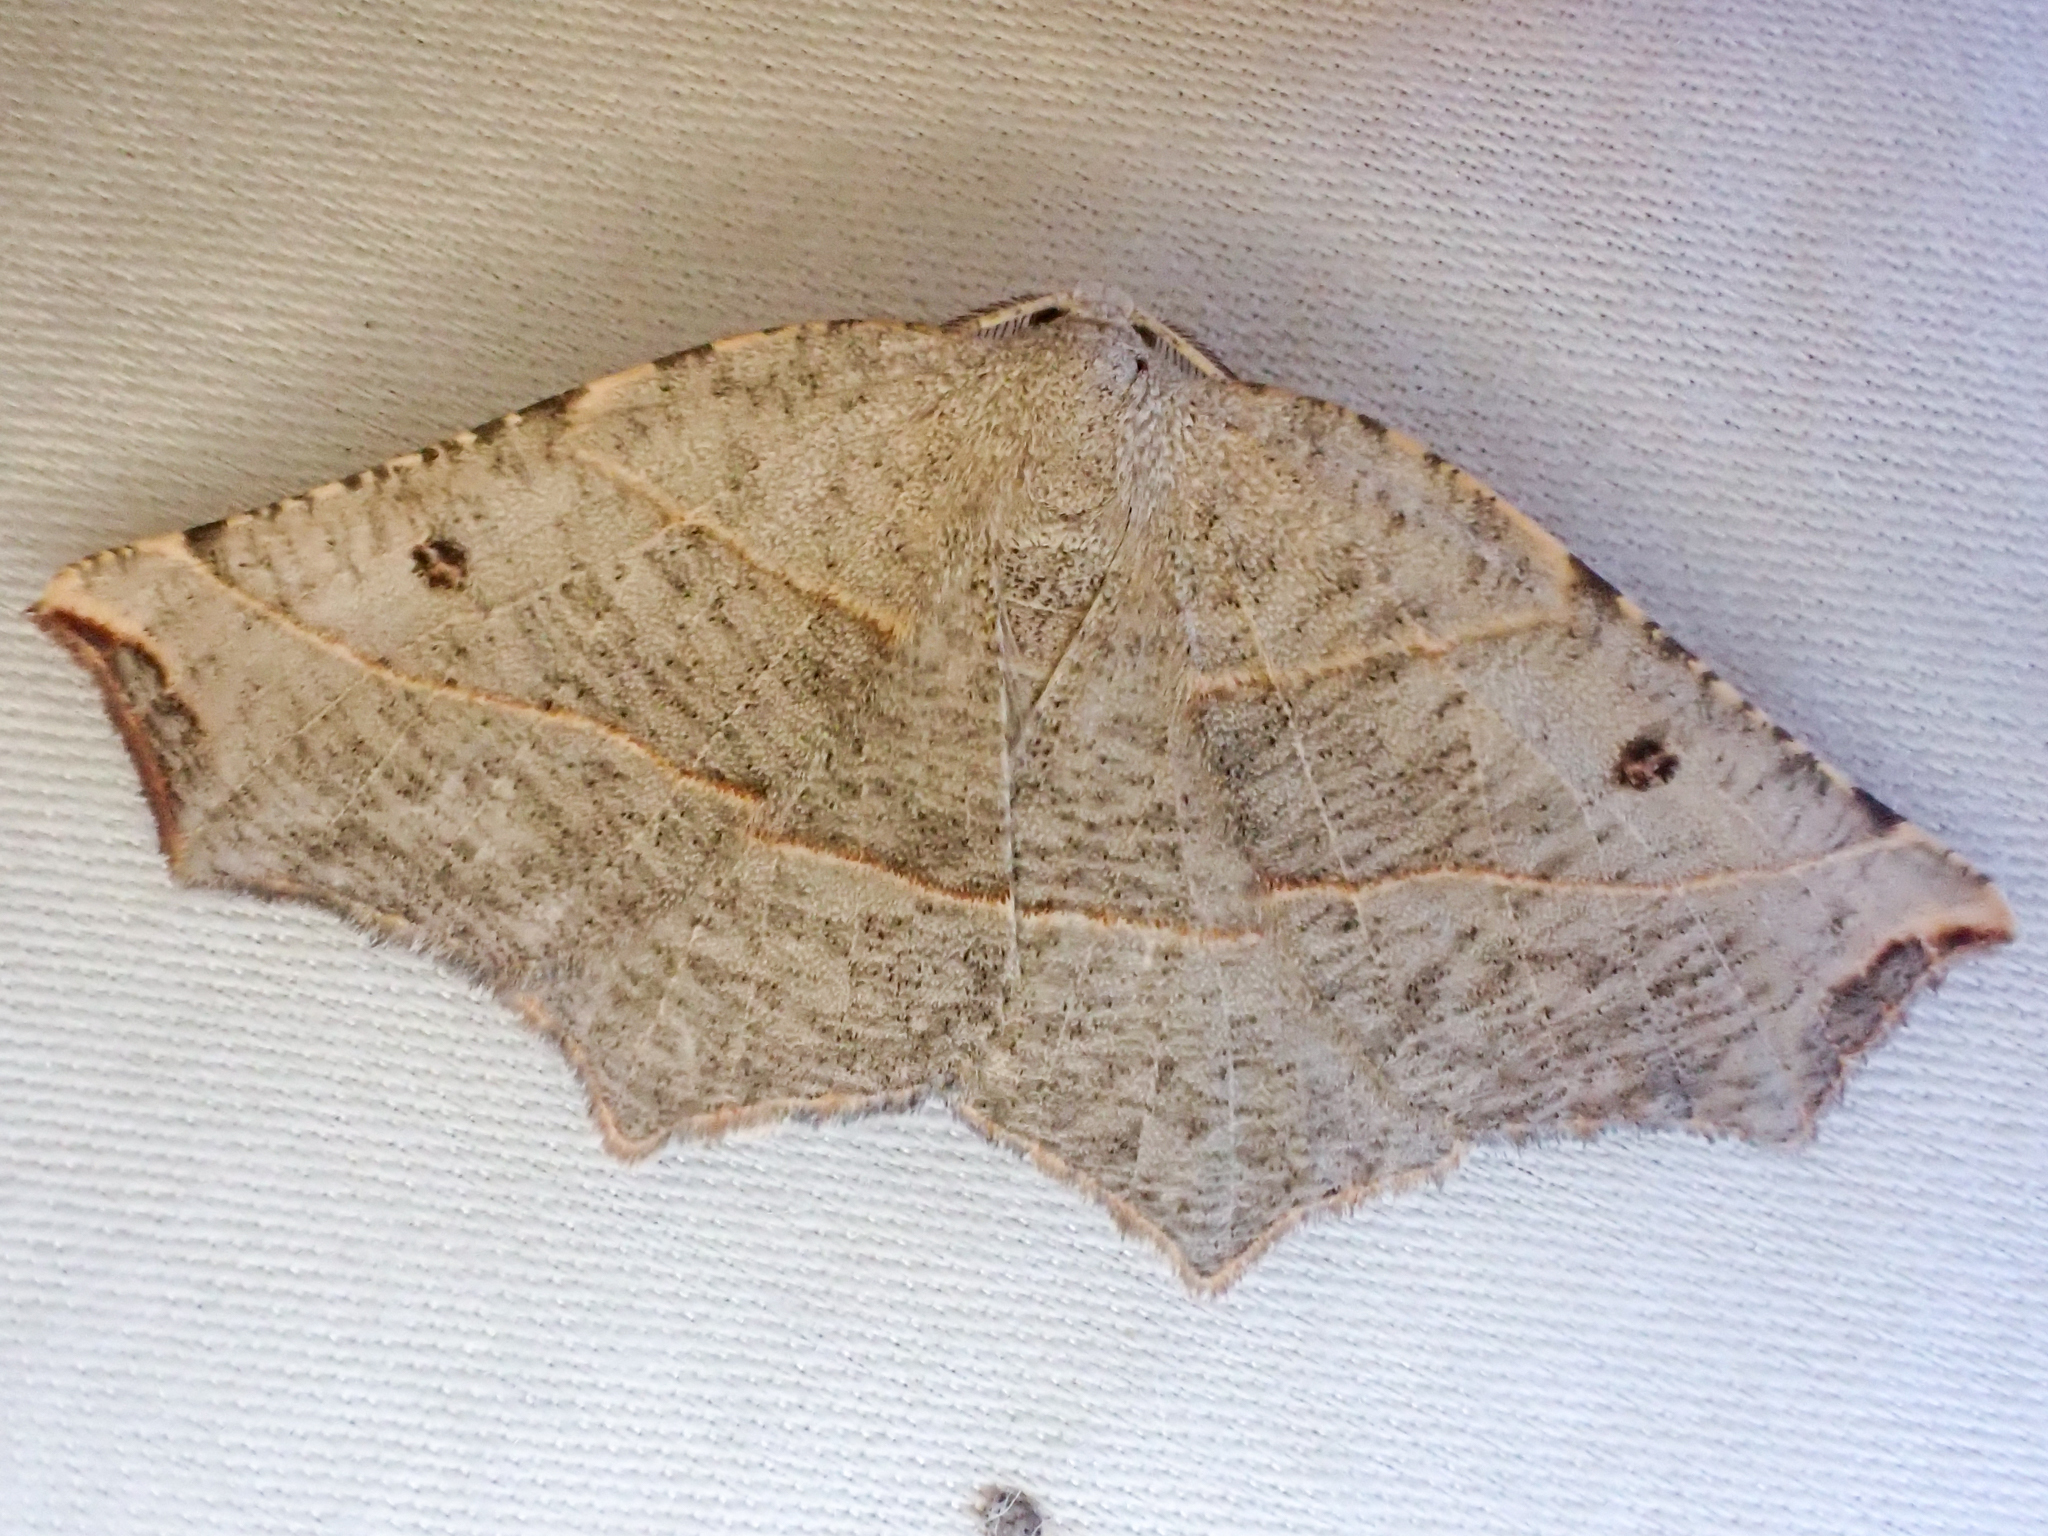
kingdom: Animalia
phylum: Arthropoda
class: Insecta
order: Lepidoptera
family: Geometridae
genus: Metanema
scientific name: Metanema inatomaria
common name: Pale metanema
